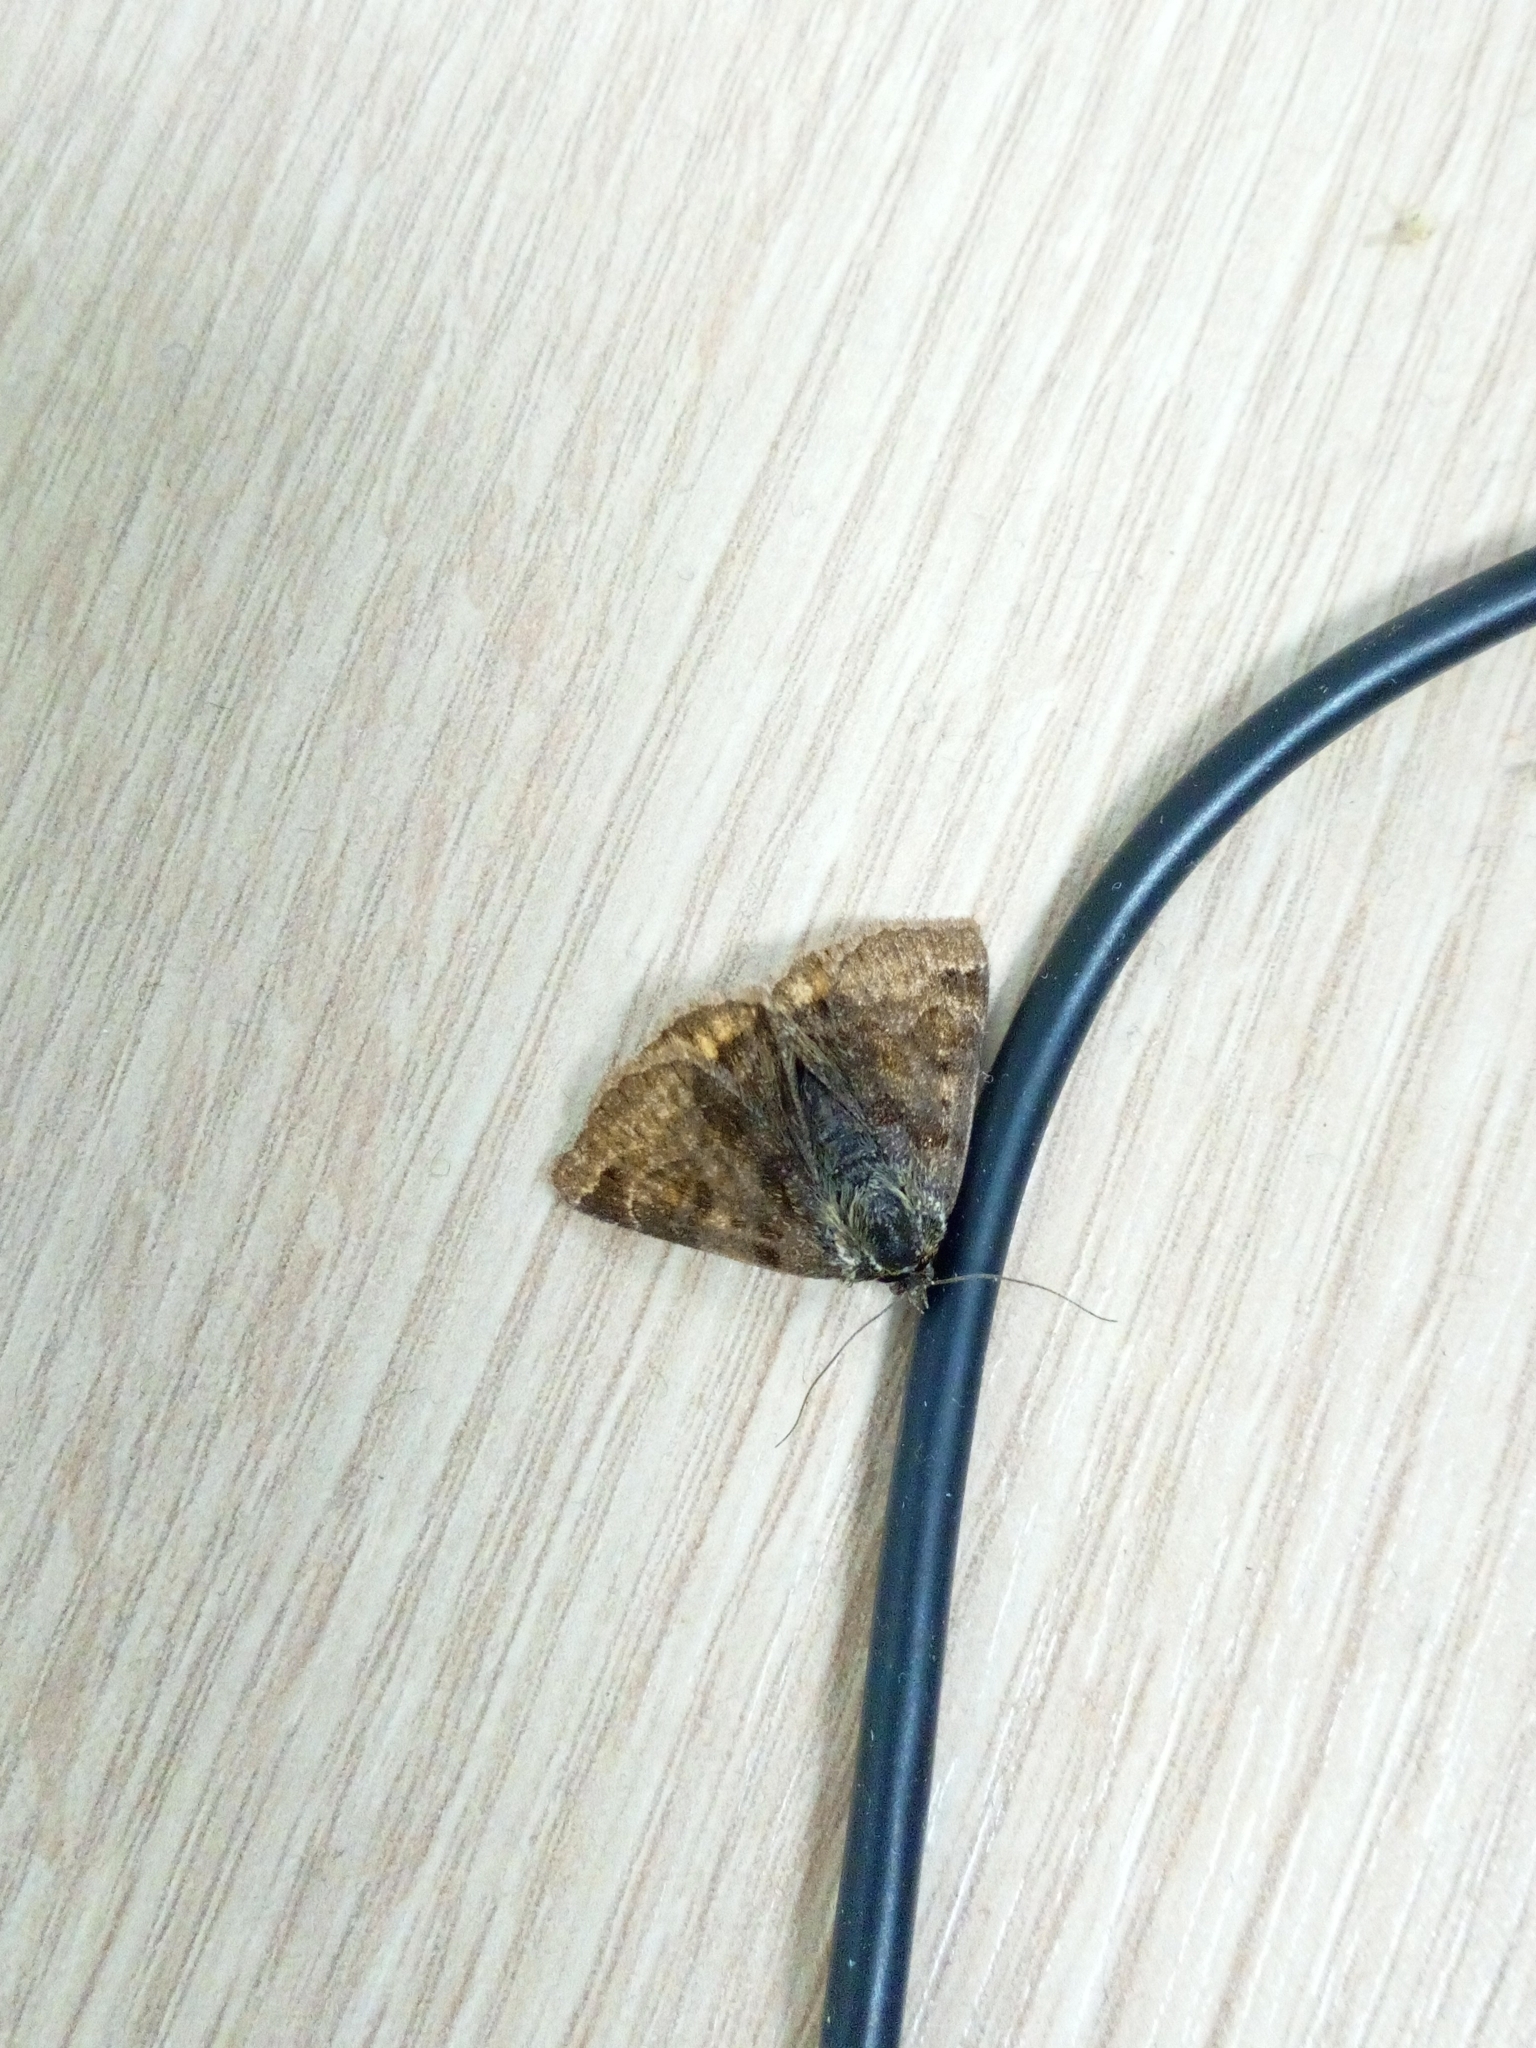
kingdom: Animalia
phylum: Arthropoda
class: Insecta
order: Lepidoptera
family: Erebidae
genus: Euclidia
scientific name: Euclidia glyphica
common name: Burnet companion
